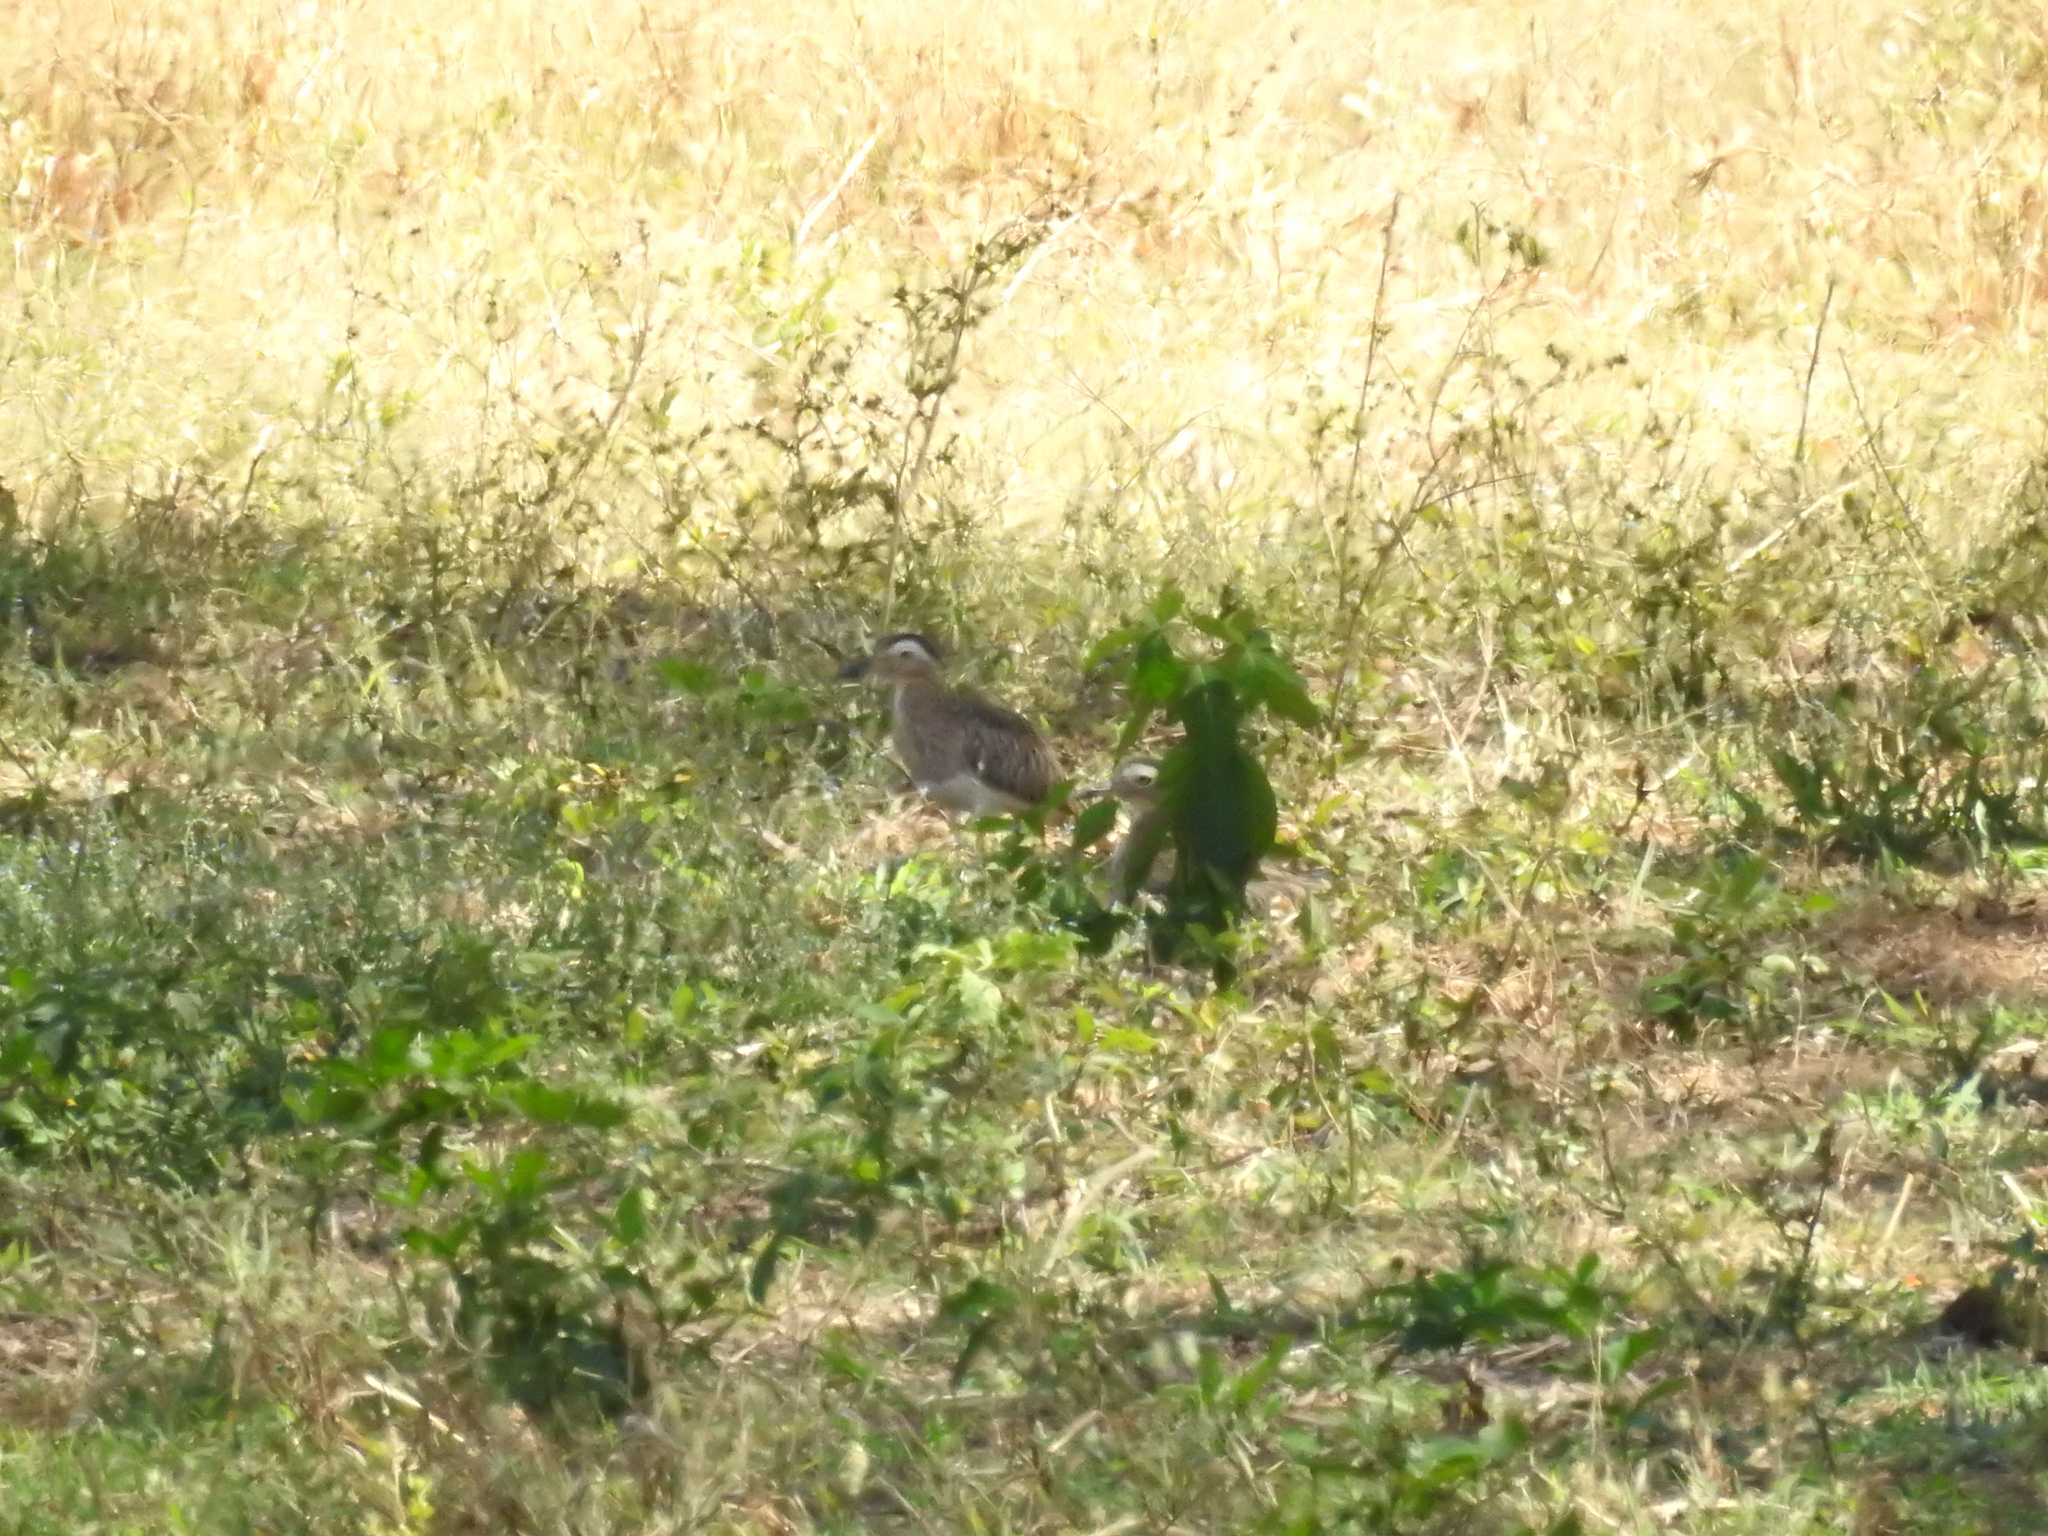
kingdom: Animalia
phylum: Chordata
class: Aves
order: Charadriiformes
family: Burhinidae
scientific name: Burhinidae
